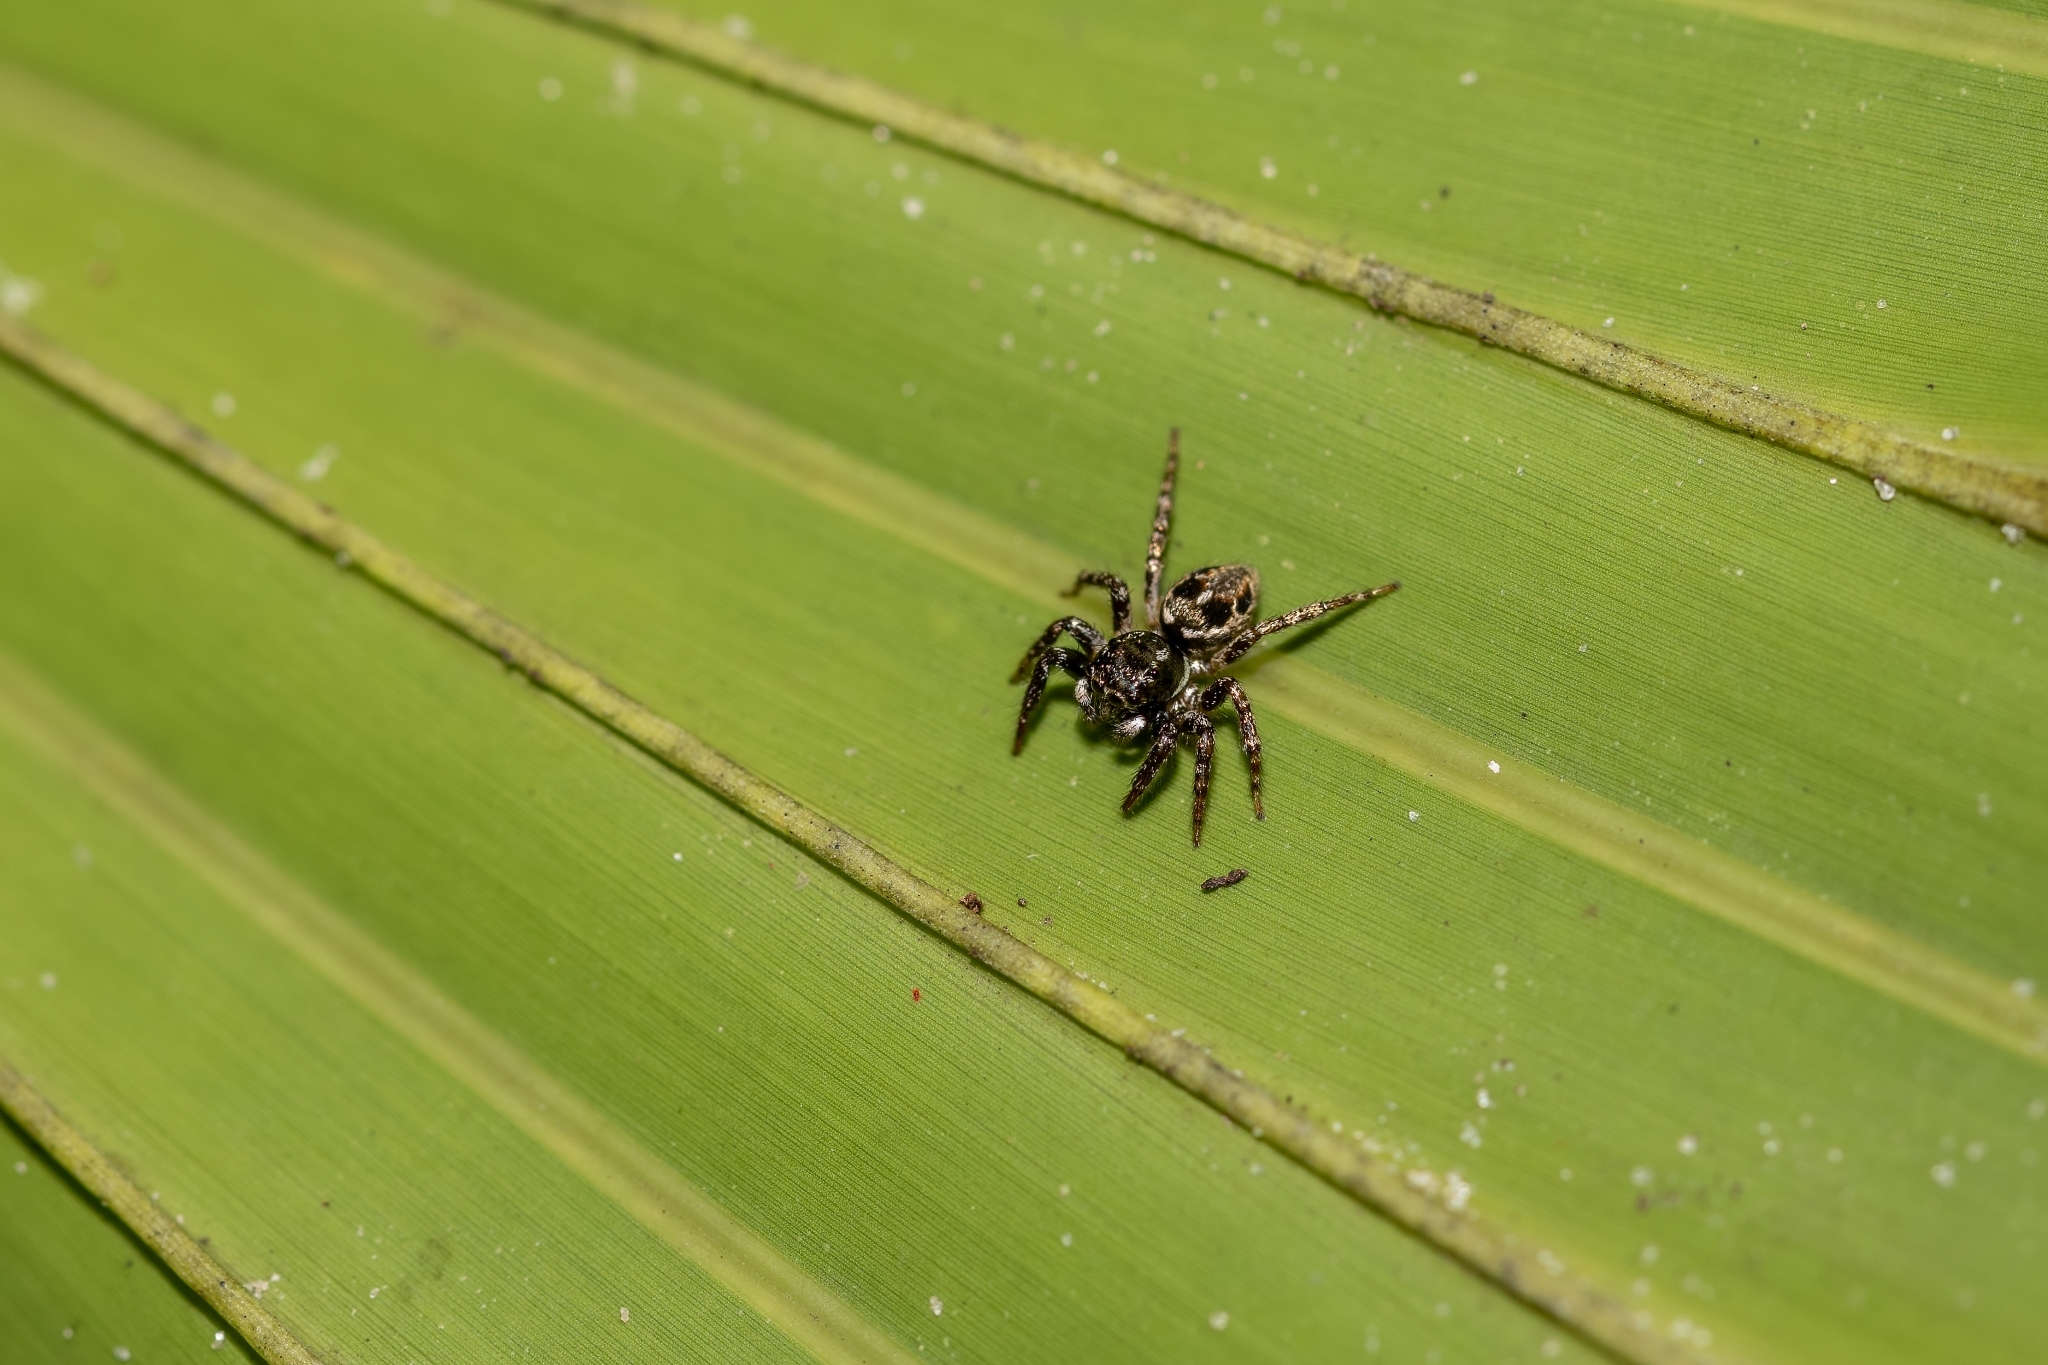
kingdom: Animalia
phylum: Arthropoda
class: Arachnida
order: Araneae
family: Salticidae
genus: Anasaitis
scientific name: Anasaitis canosa
